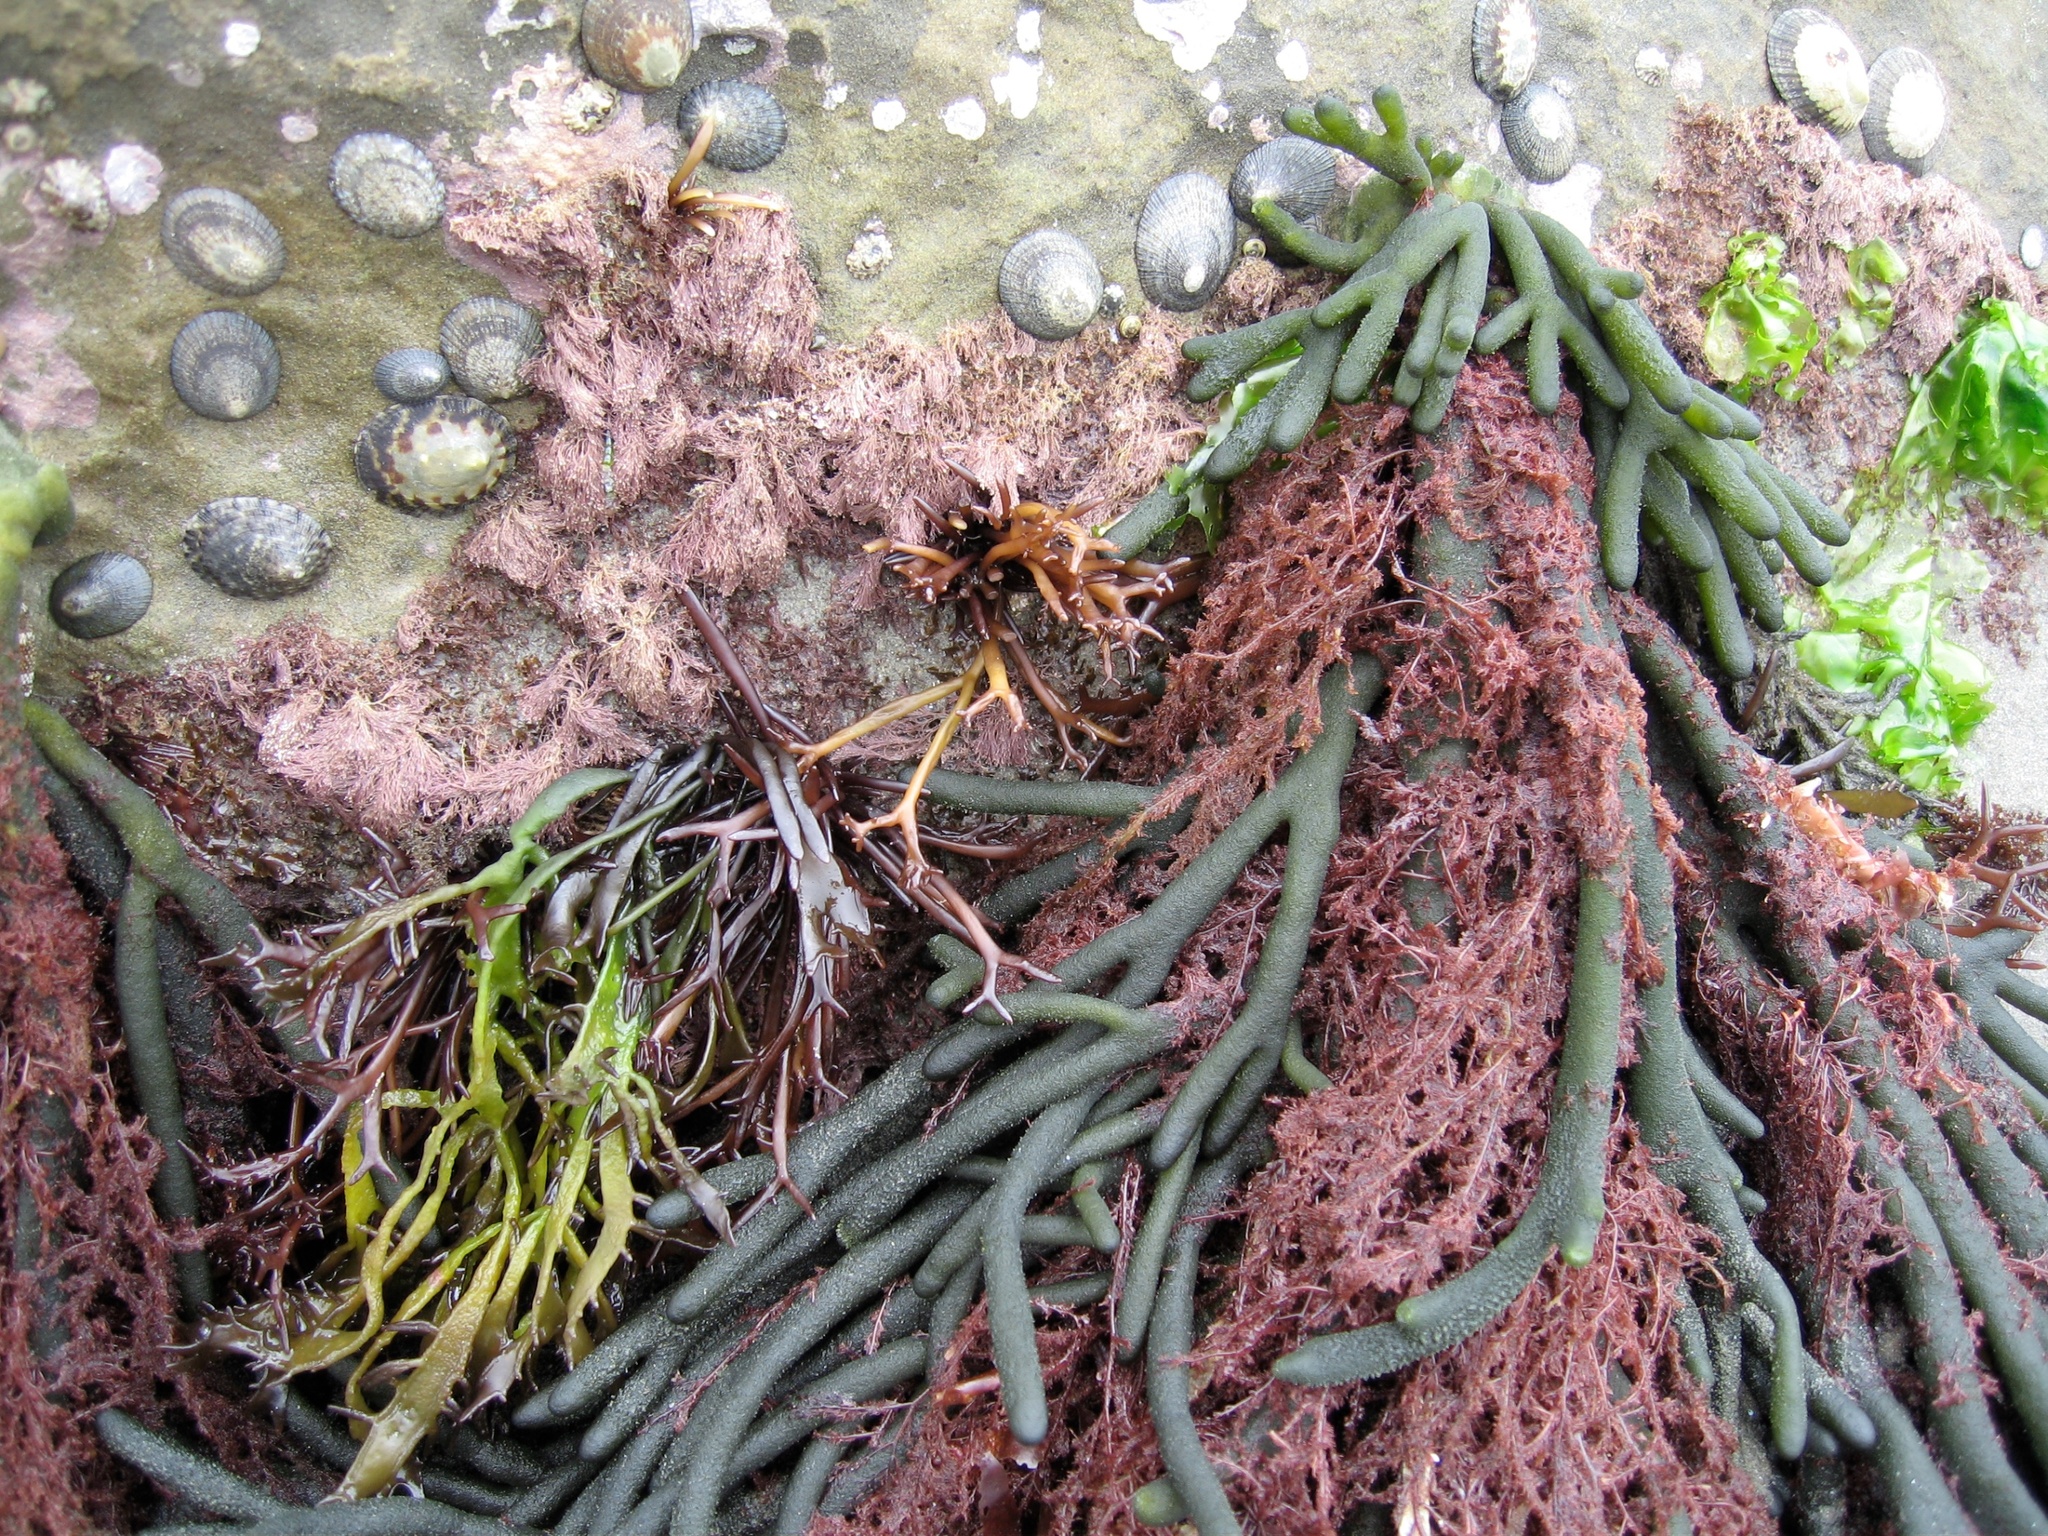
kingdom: Plantae
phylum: Chlorophyta
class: Ulvophyceae
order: Bryopsidales
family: Codiaceae
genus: Codium
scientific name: Codium fragile
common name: Dead man's fingers
